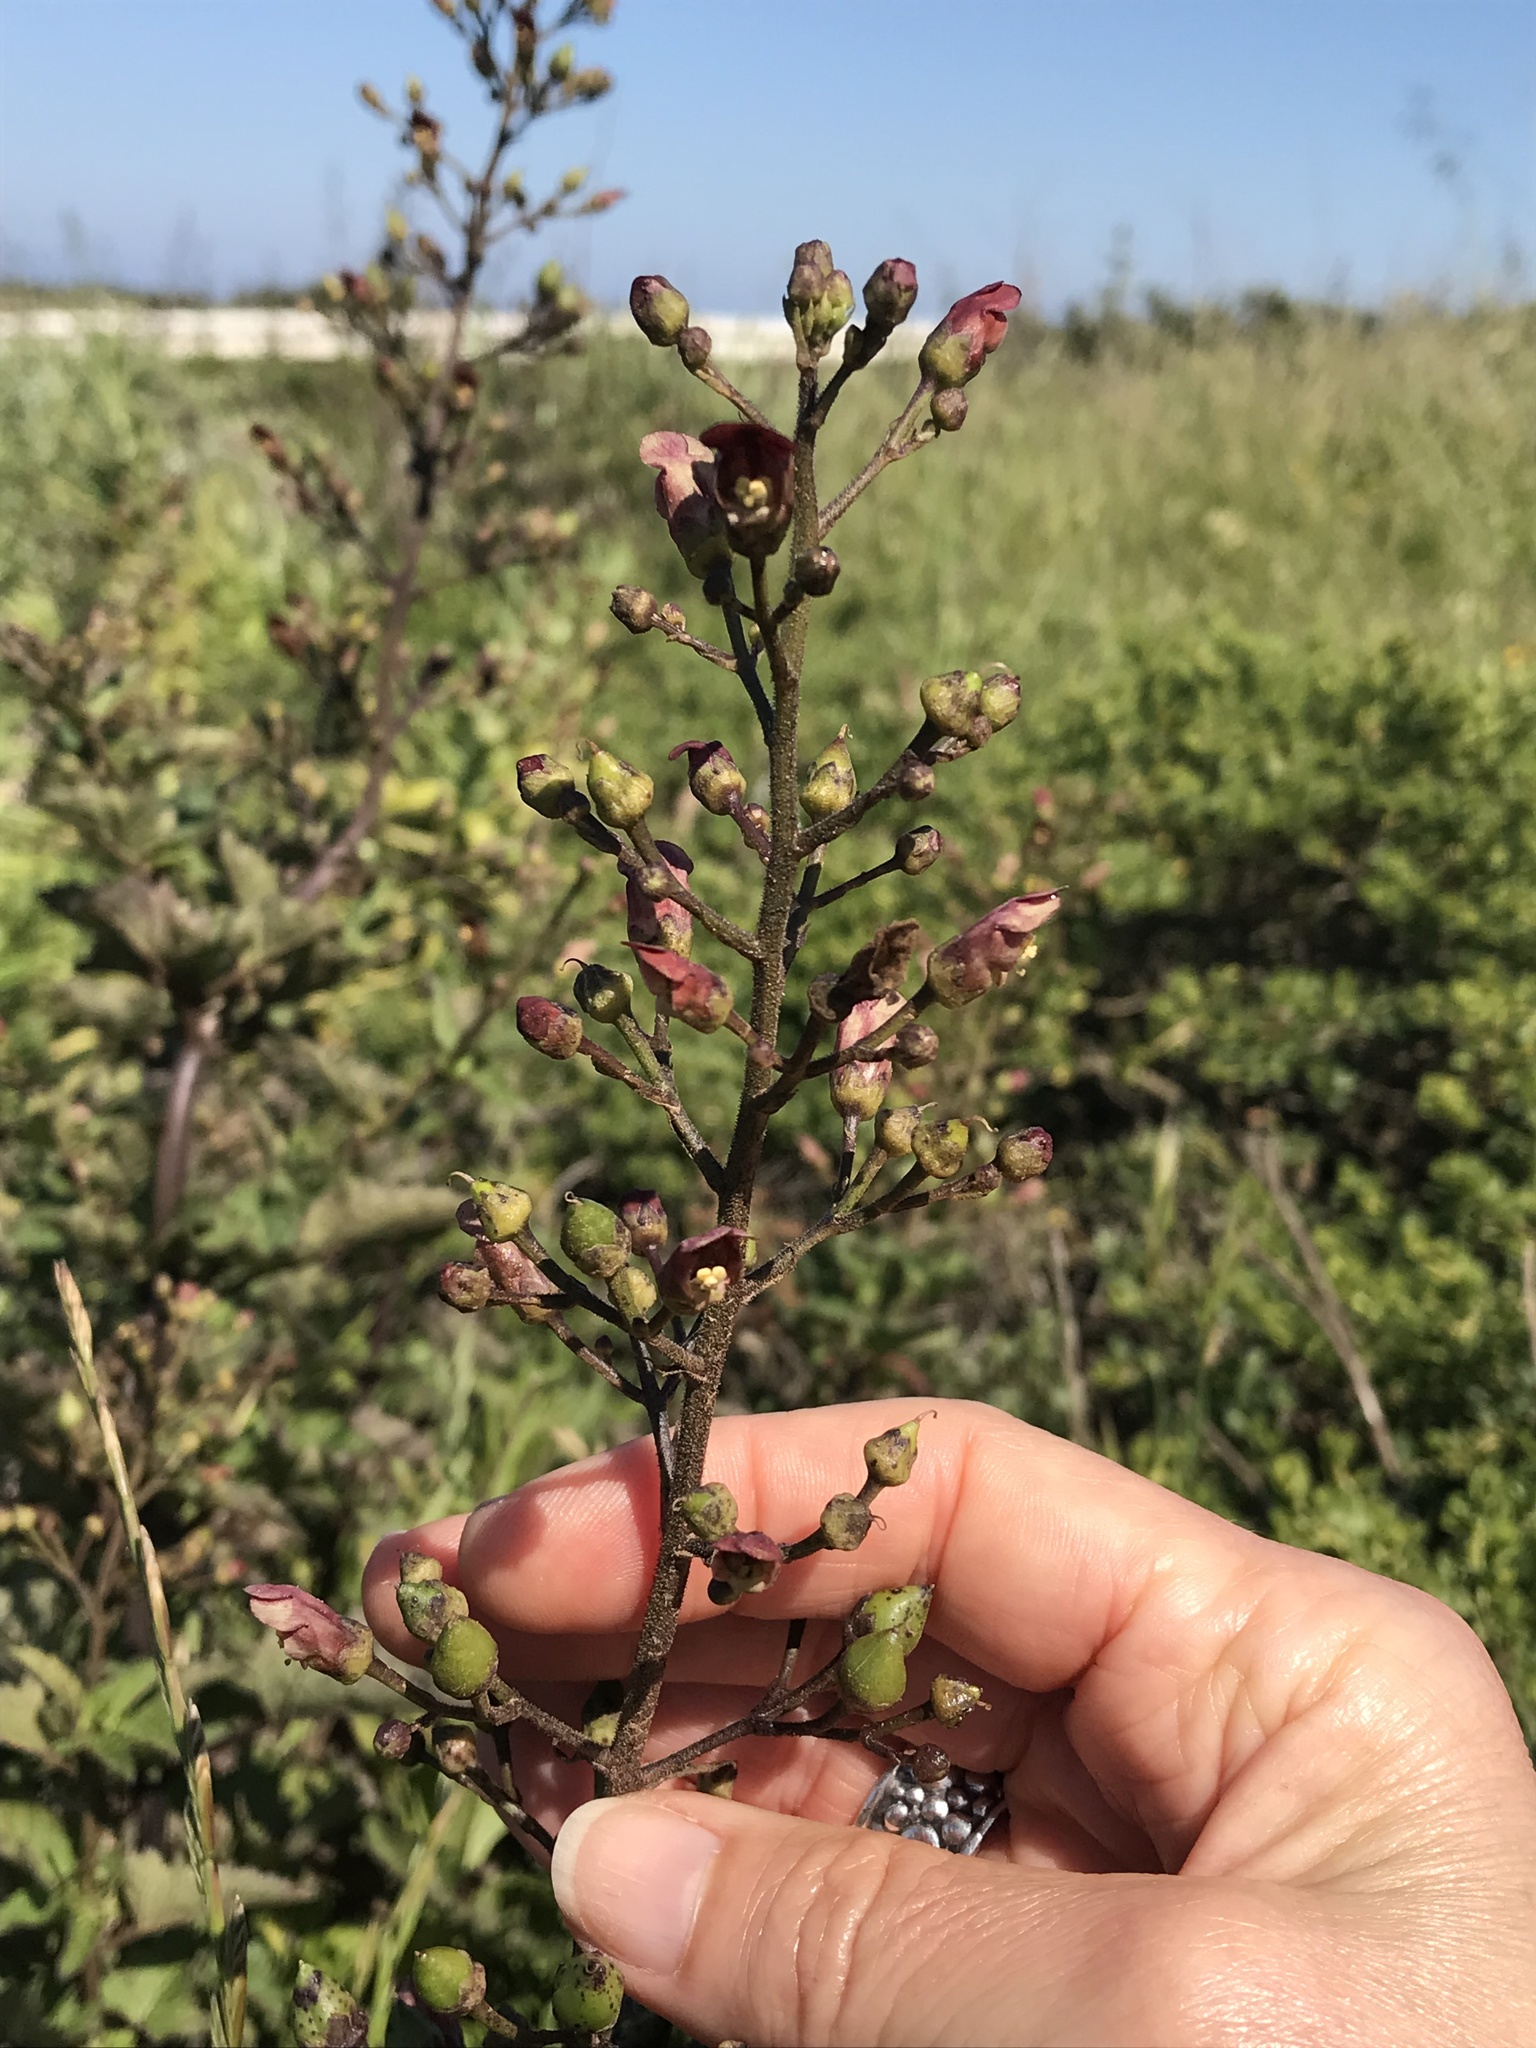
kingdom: Plantae
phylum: Tracheophyta
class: Magnoliopsida
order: Lamiales
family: Scrophulariaceae
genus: Scrophularia
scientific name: Scrophularia californica
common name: California figwort
